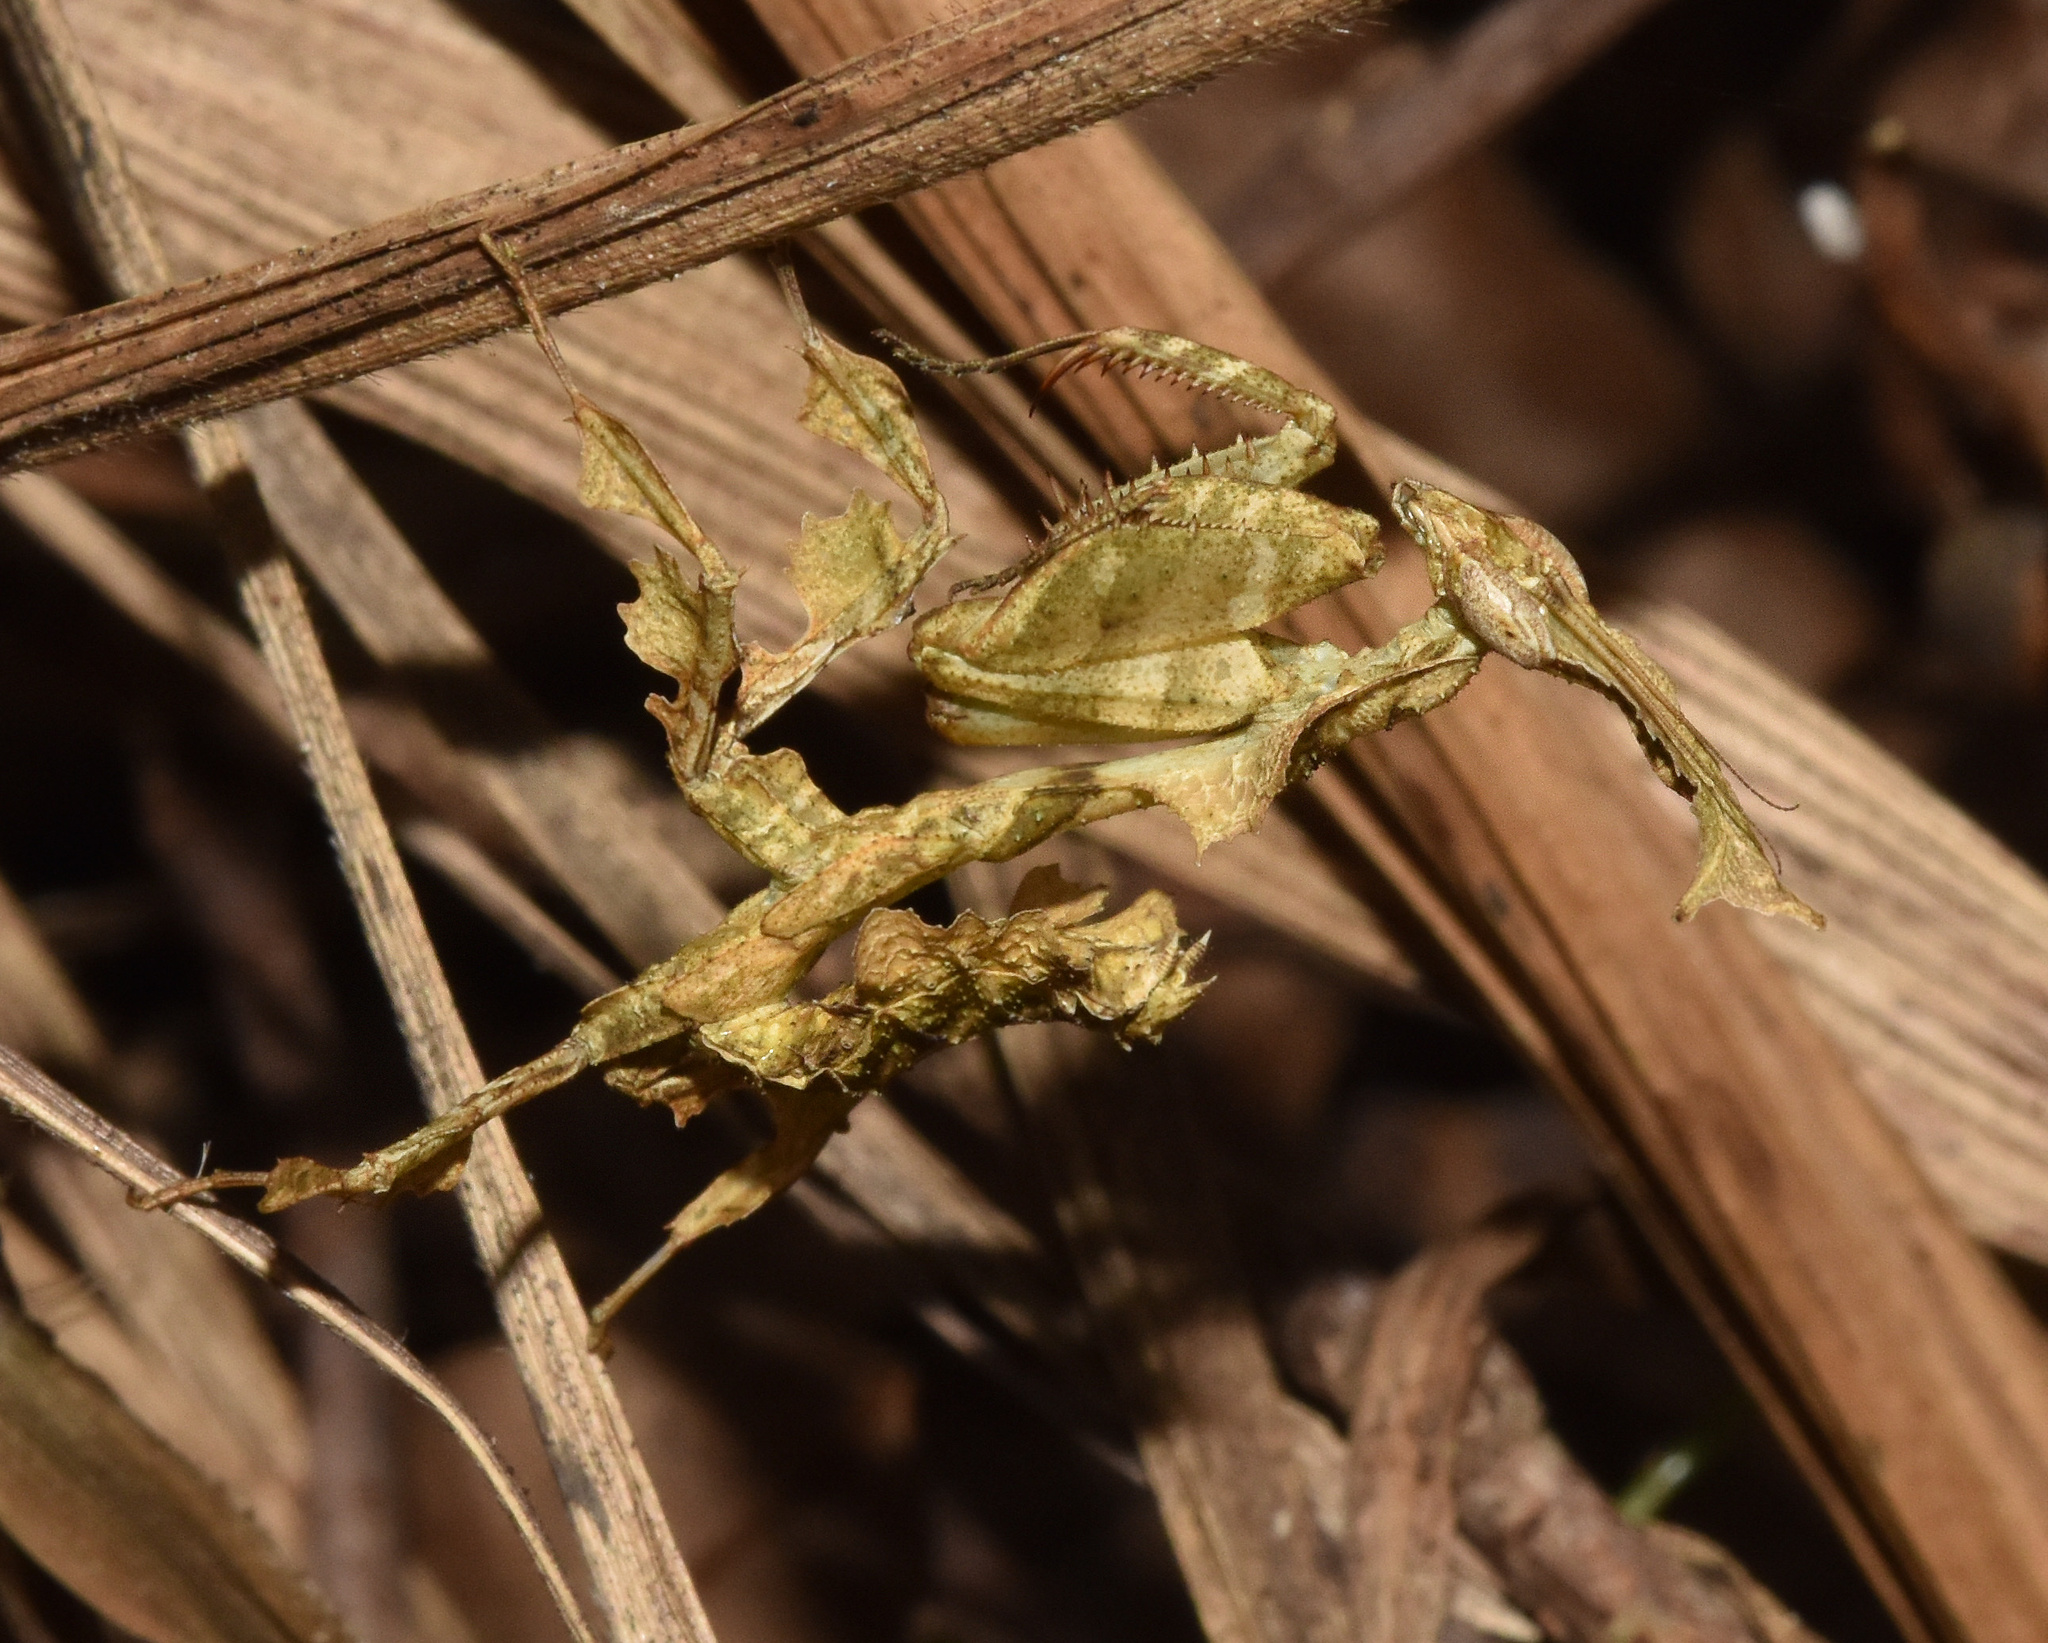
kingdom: Animalia
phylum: Arthropoda
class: Insecta
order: Mantodea
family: Hymenopodidae
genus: Phyllocrania
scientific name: Phyllocrania paradoxa
